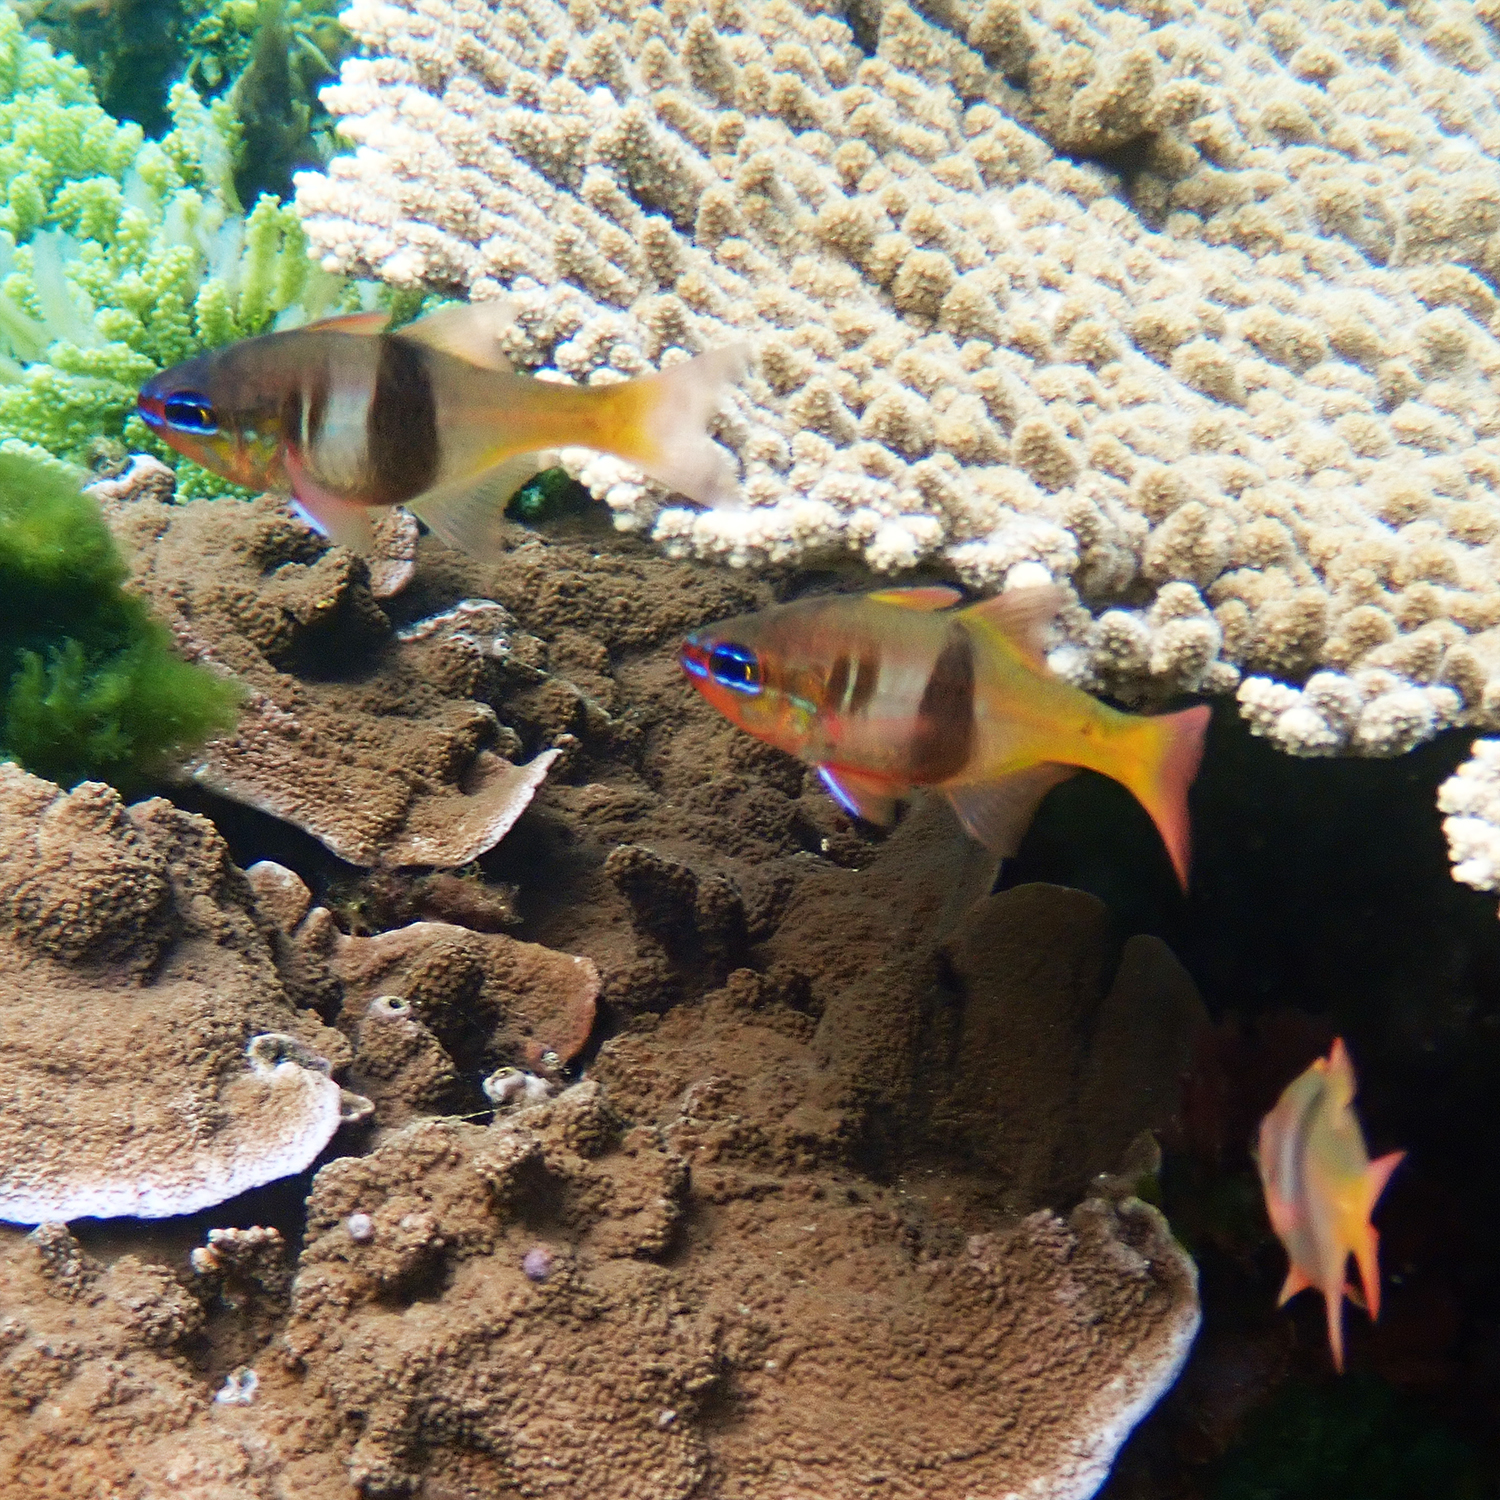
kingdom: Animalia
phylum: Chordata
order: Perciformes
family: Apogonidae
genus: Taeniamia
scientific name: Taeniamia leai
